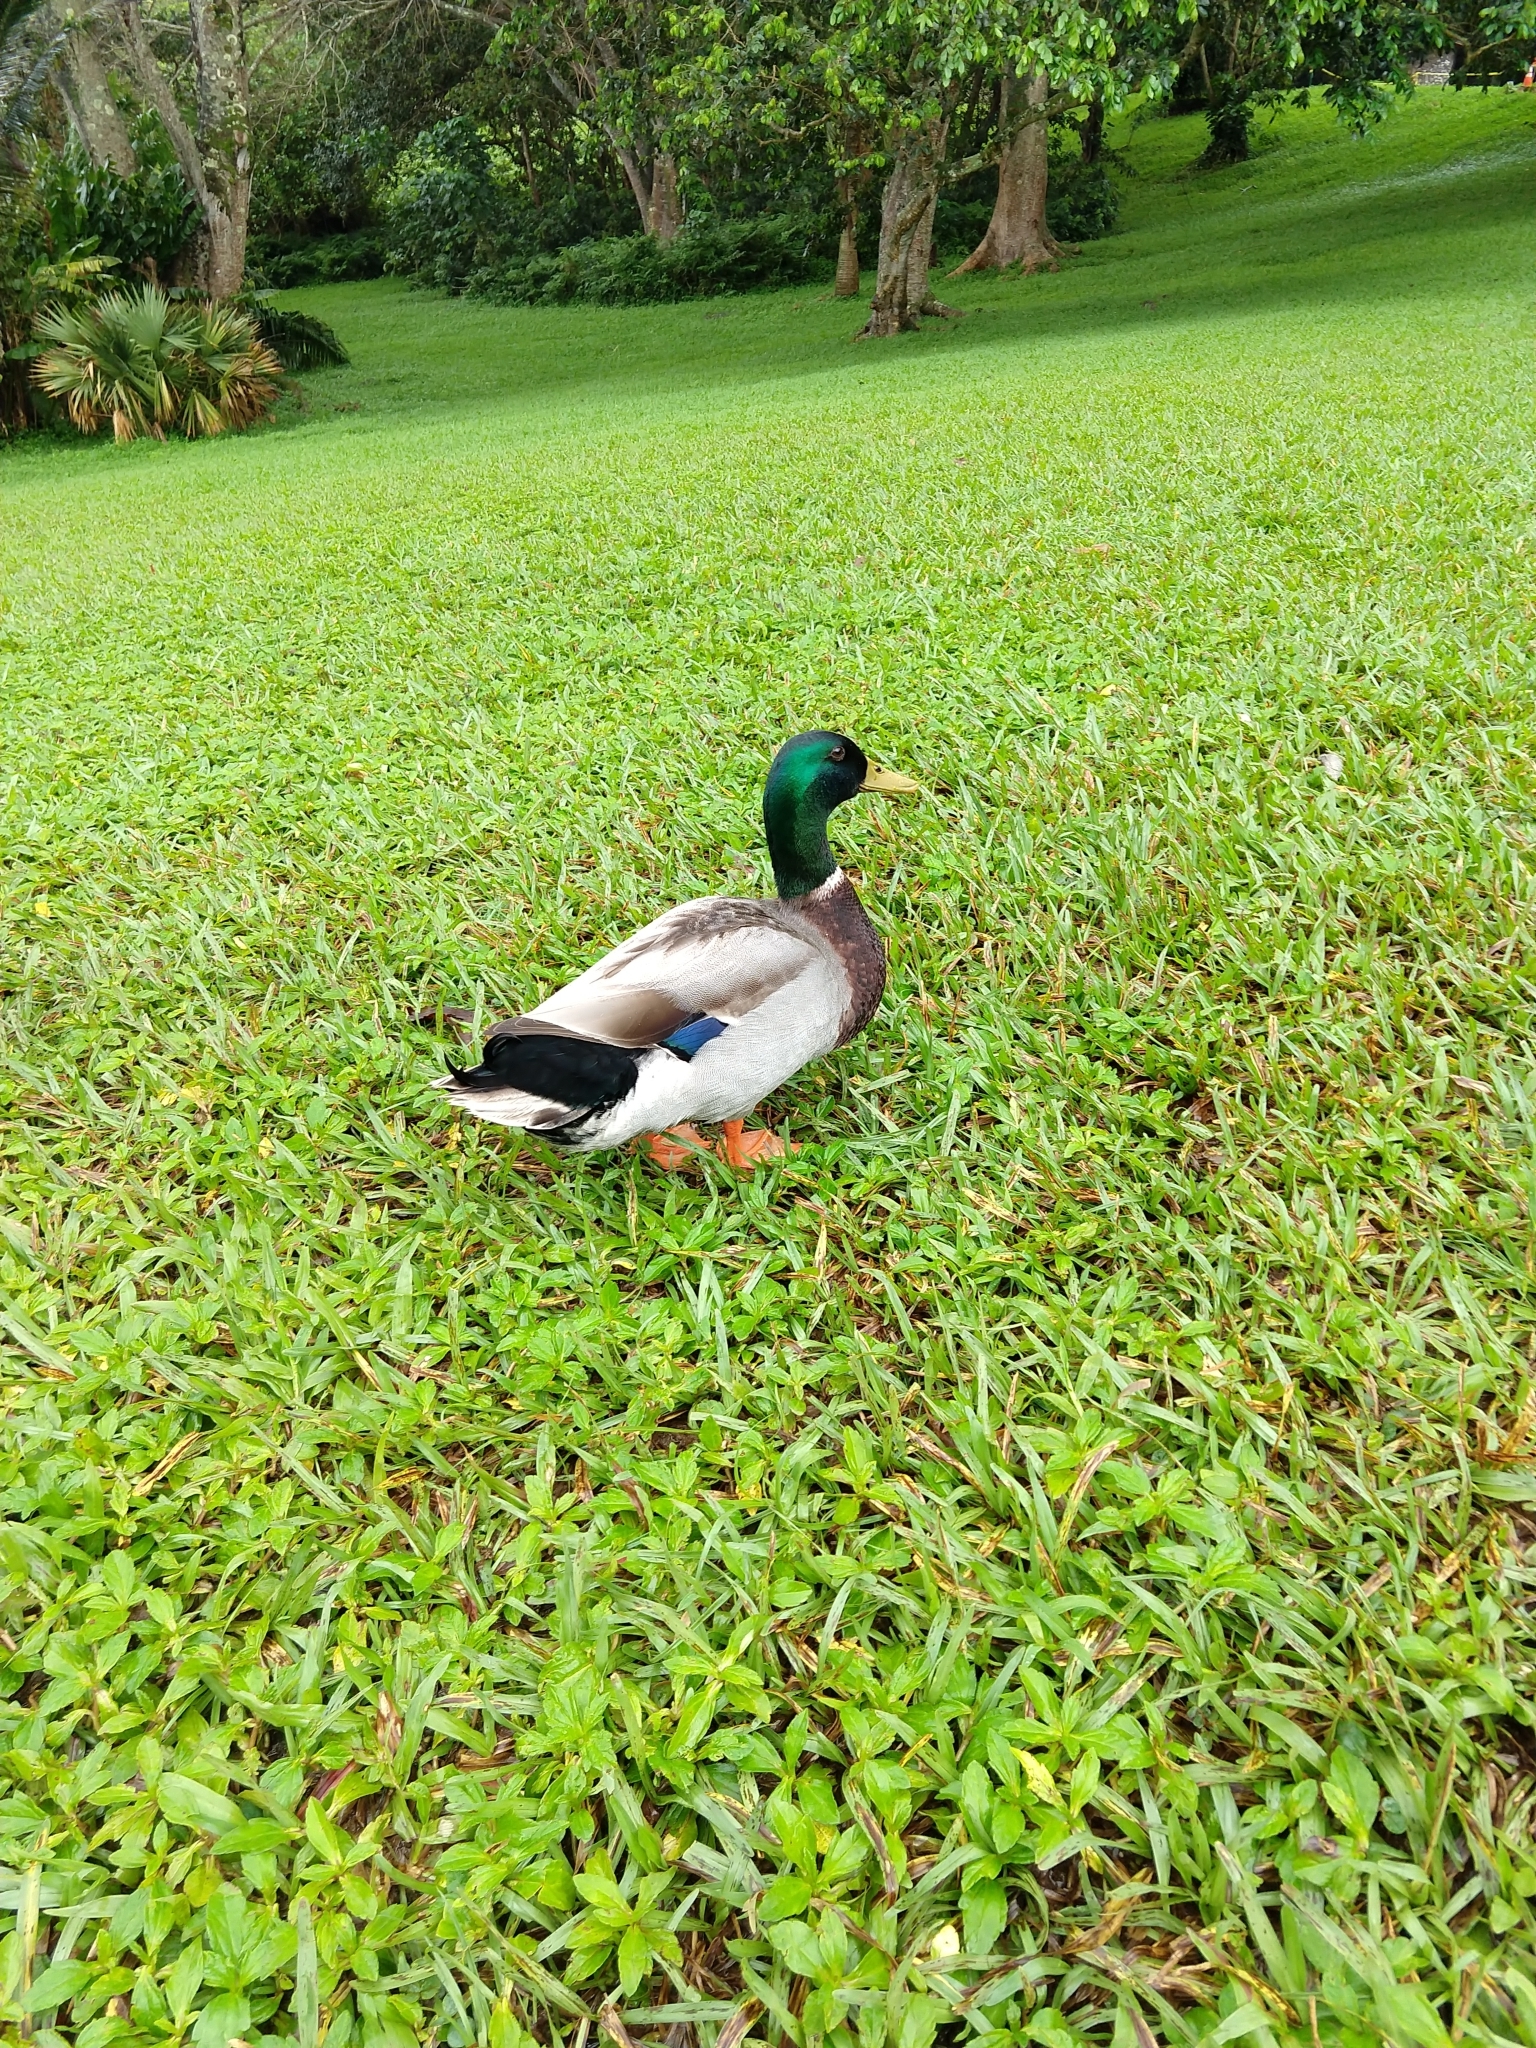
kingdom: Animalia
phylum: Chordata
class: Aves
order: Anseriformes
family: Anatidae
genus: Anas
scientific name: Anas platyrhynchos
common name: Mallard
